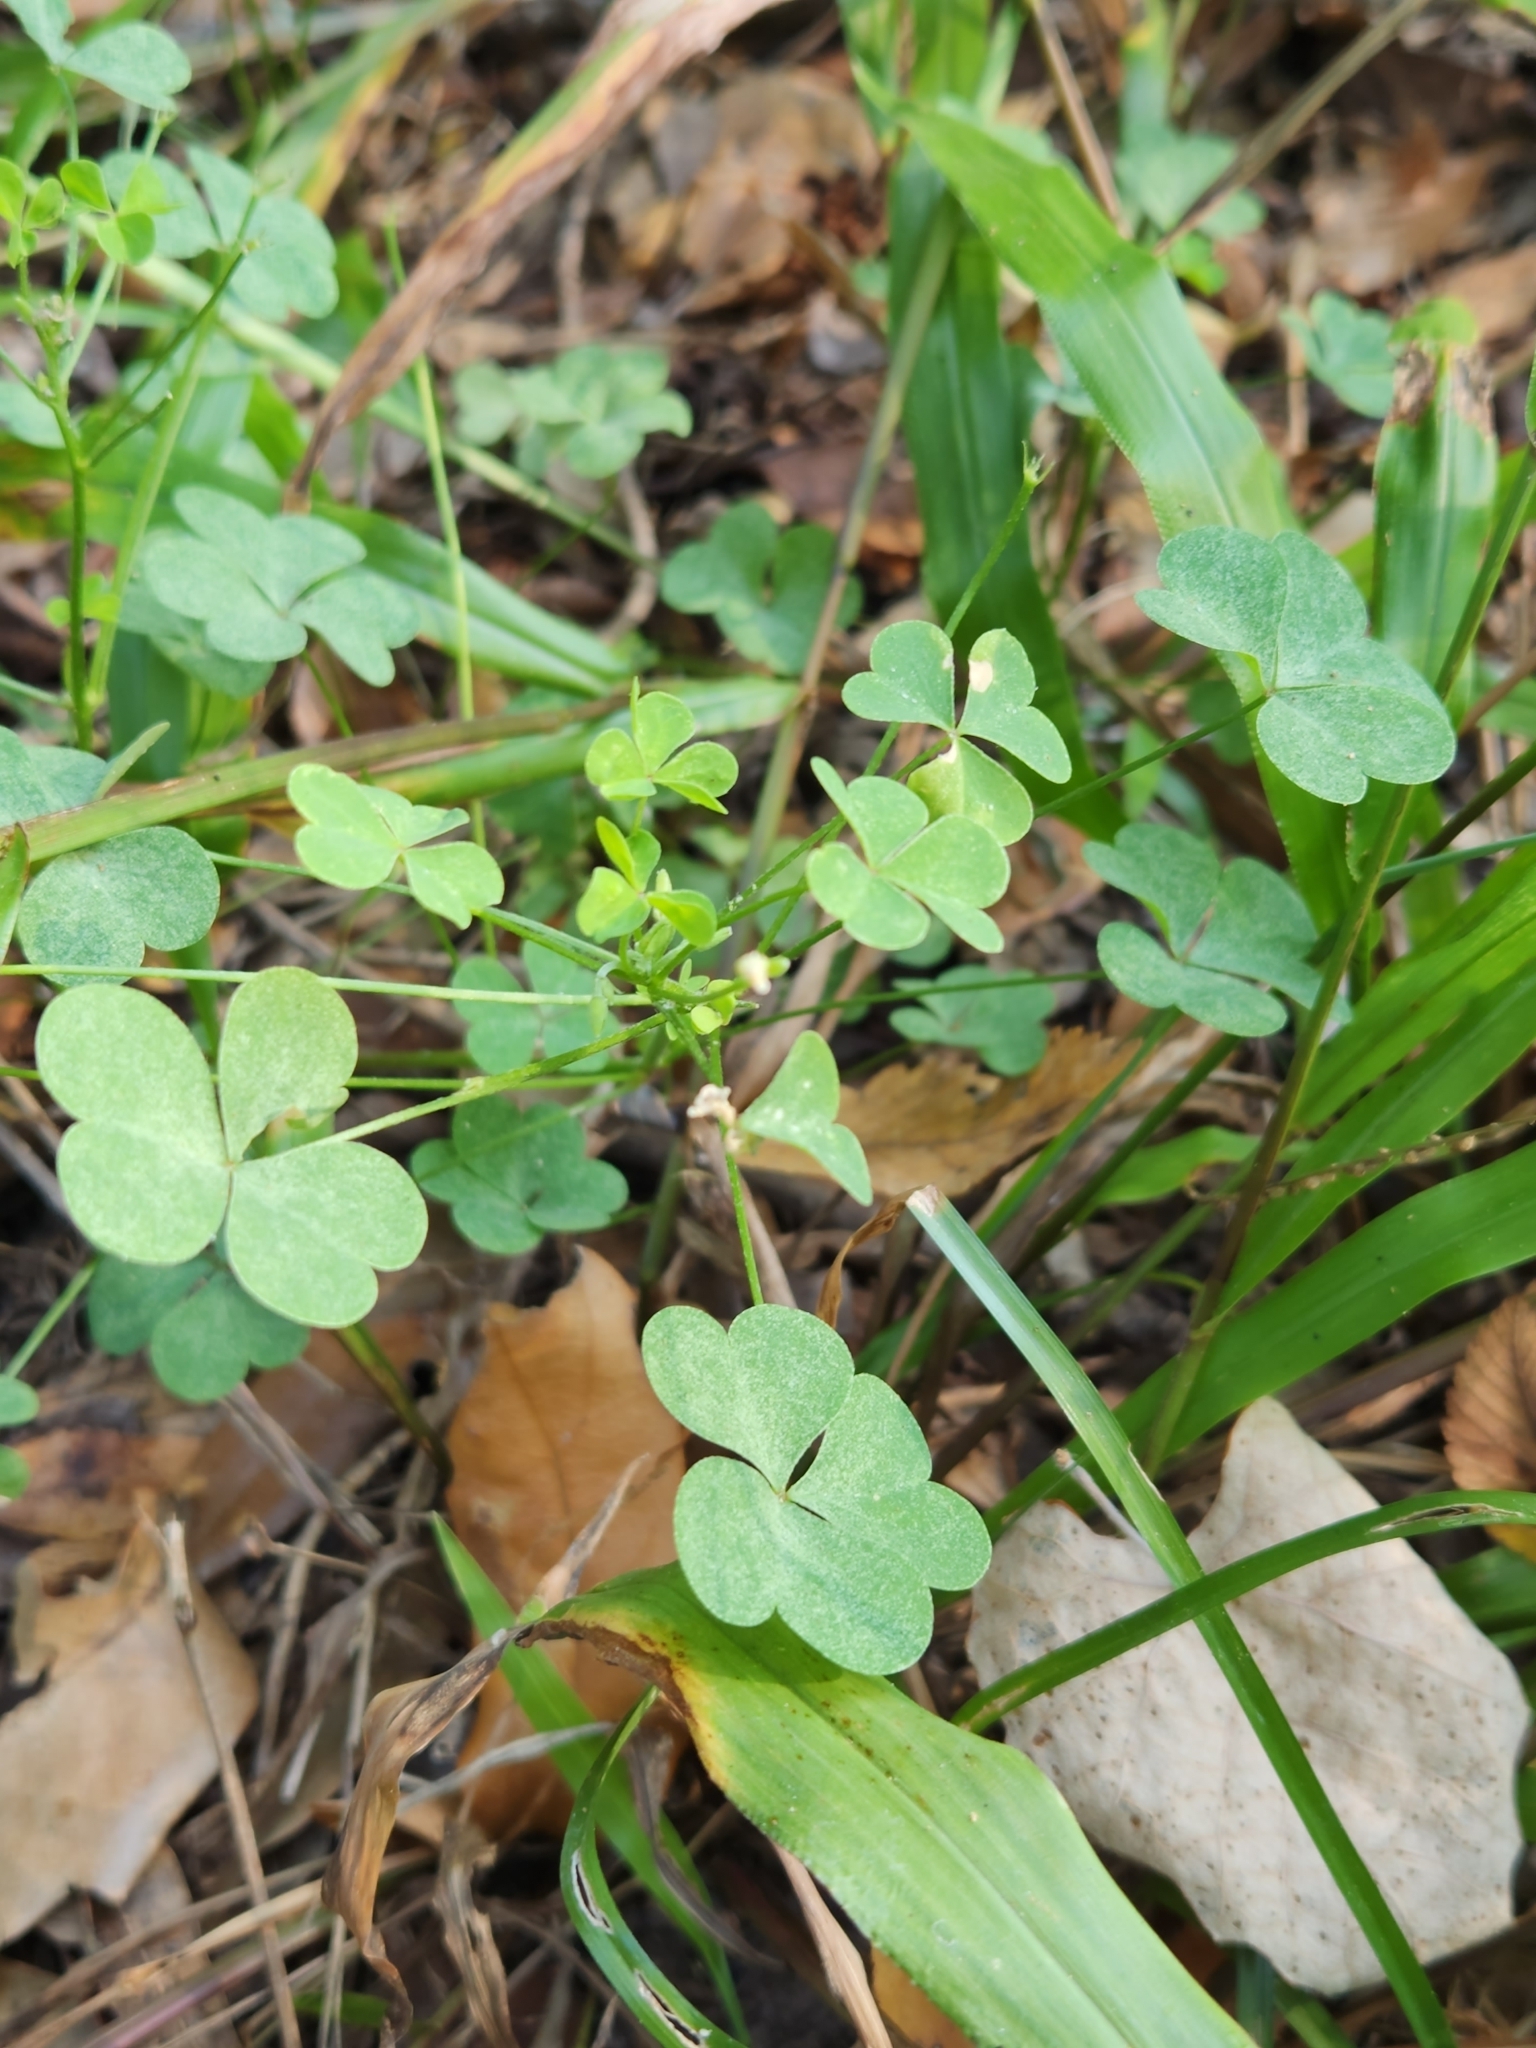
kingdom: Plantae
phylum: Tracheophyta
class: Magnoliopsida
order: Oxalidales
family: Oxalidaceae
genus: Oxalis
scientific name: Oxalis dillenii
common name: Sussex yellow-sorrel
